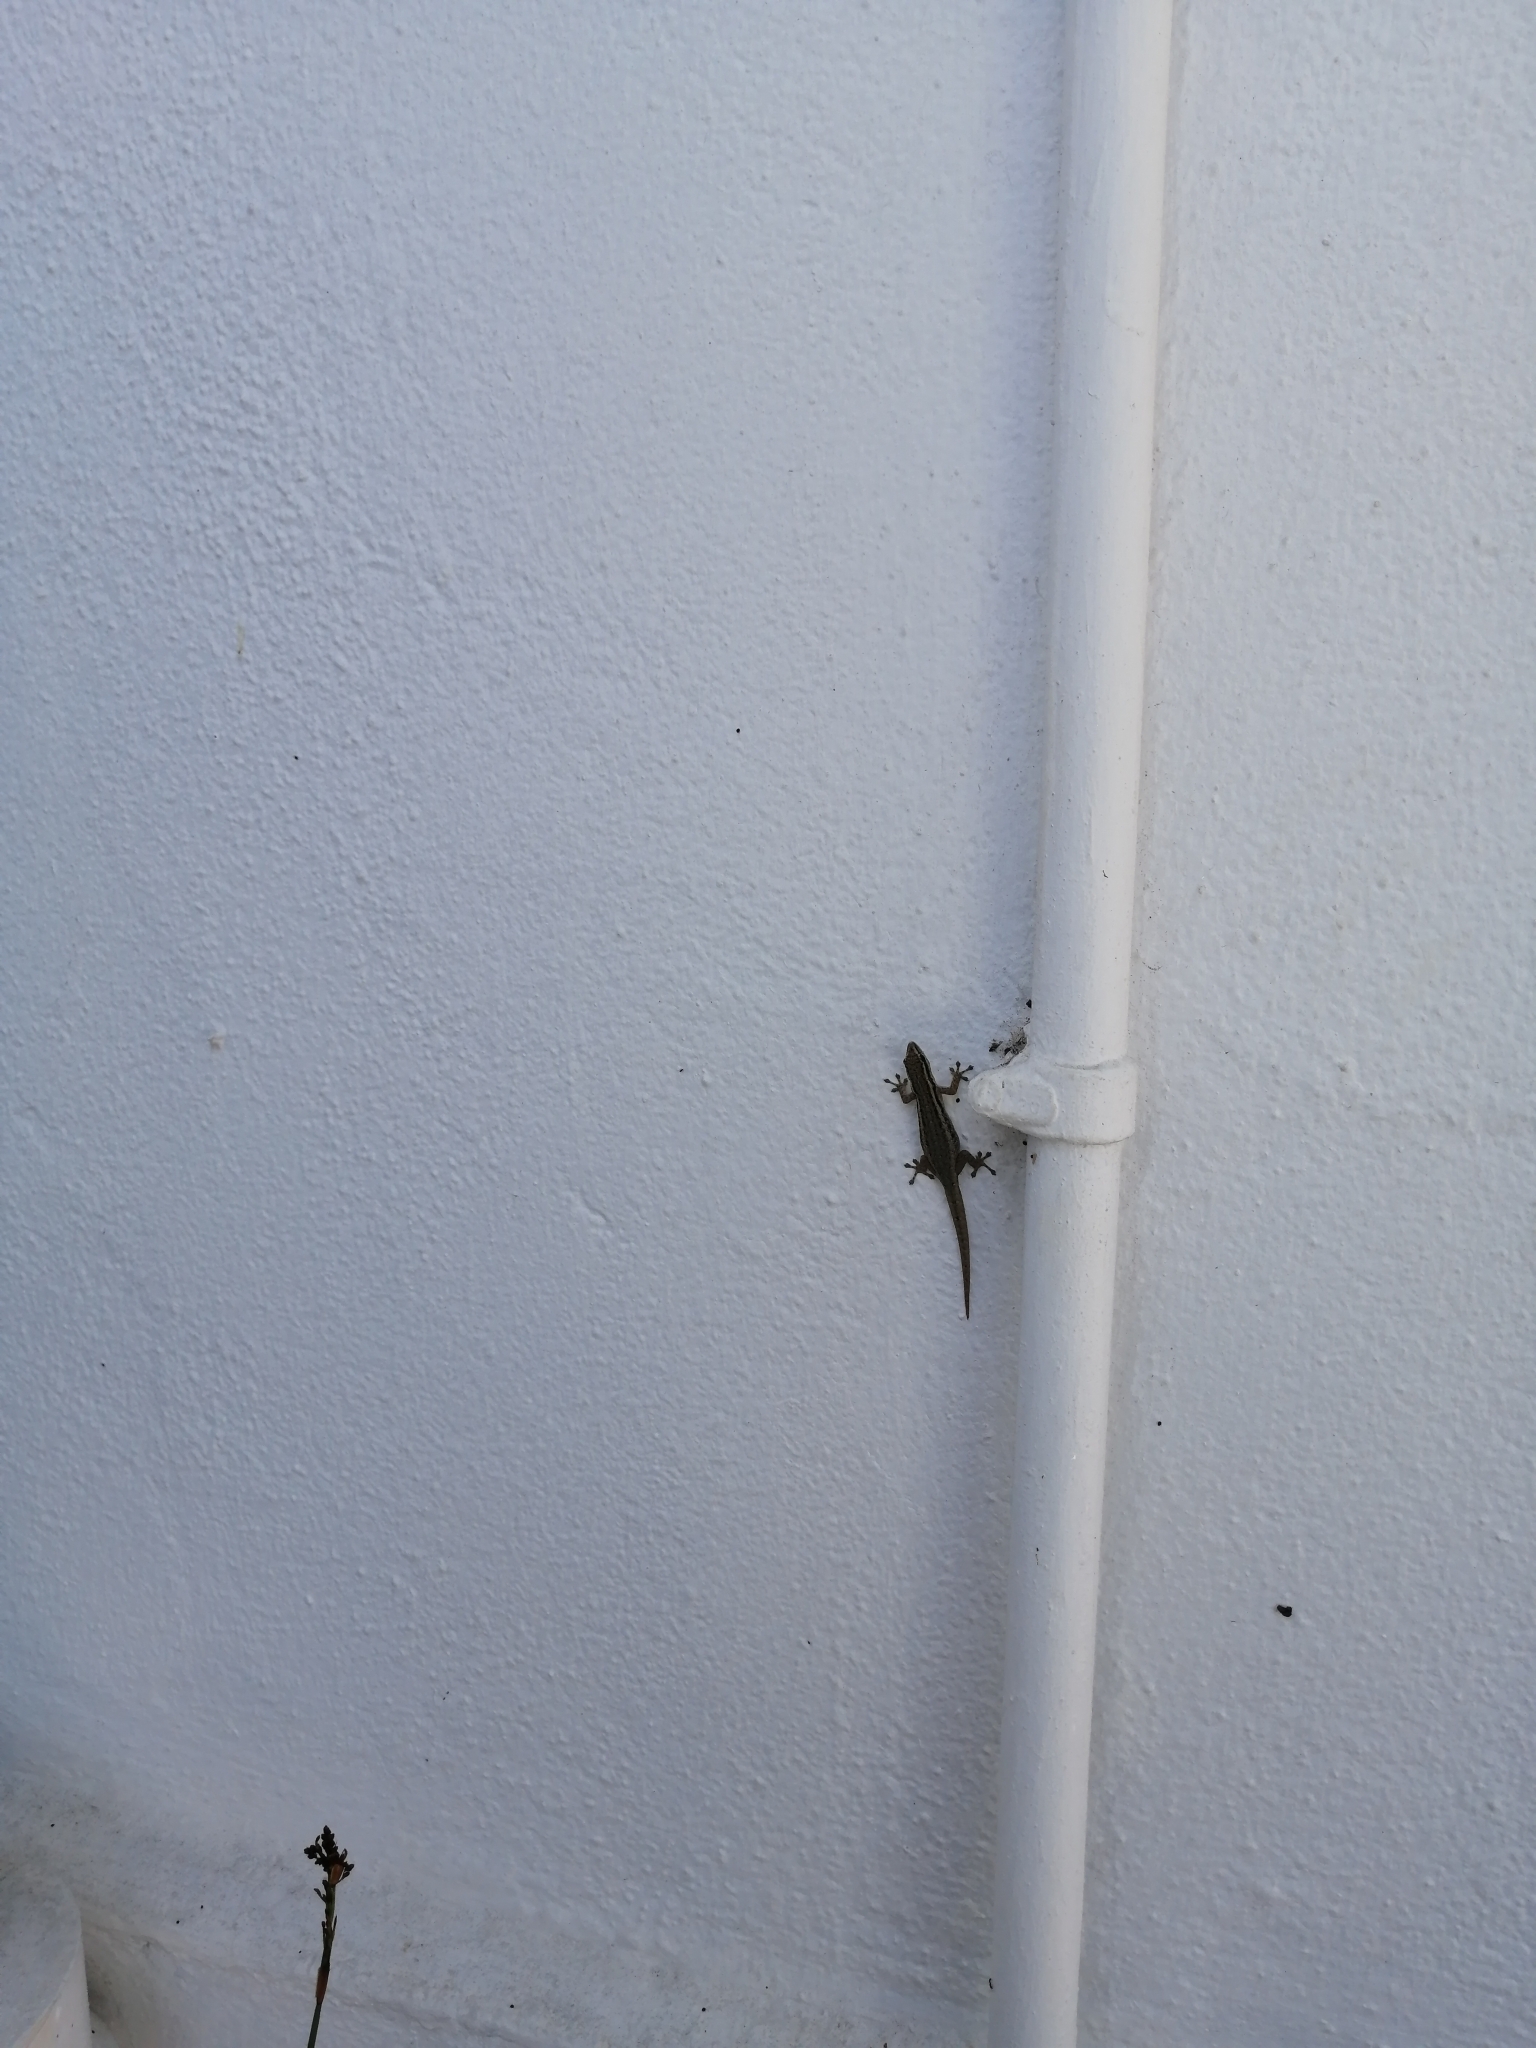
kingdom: Animalia
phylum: Chordata
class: Squamata
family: Gekkonidae
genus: Lygodactylus
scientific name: Lygodactylus capensis
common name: Cape dwarf gecko
